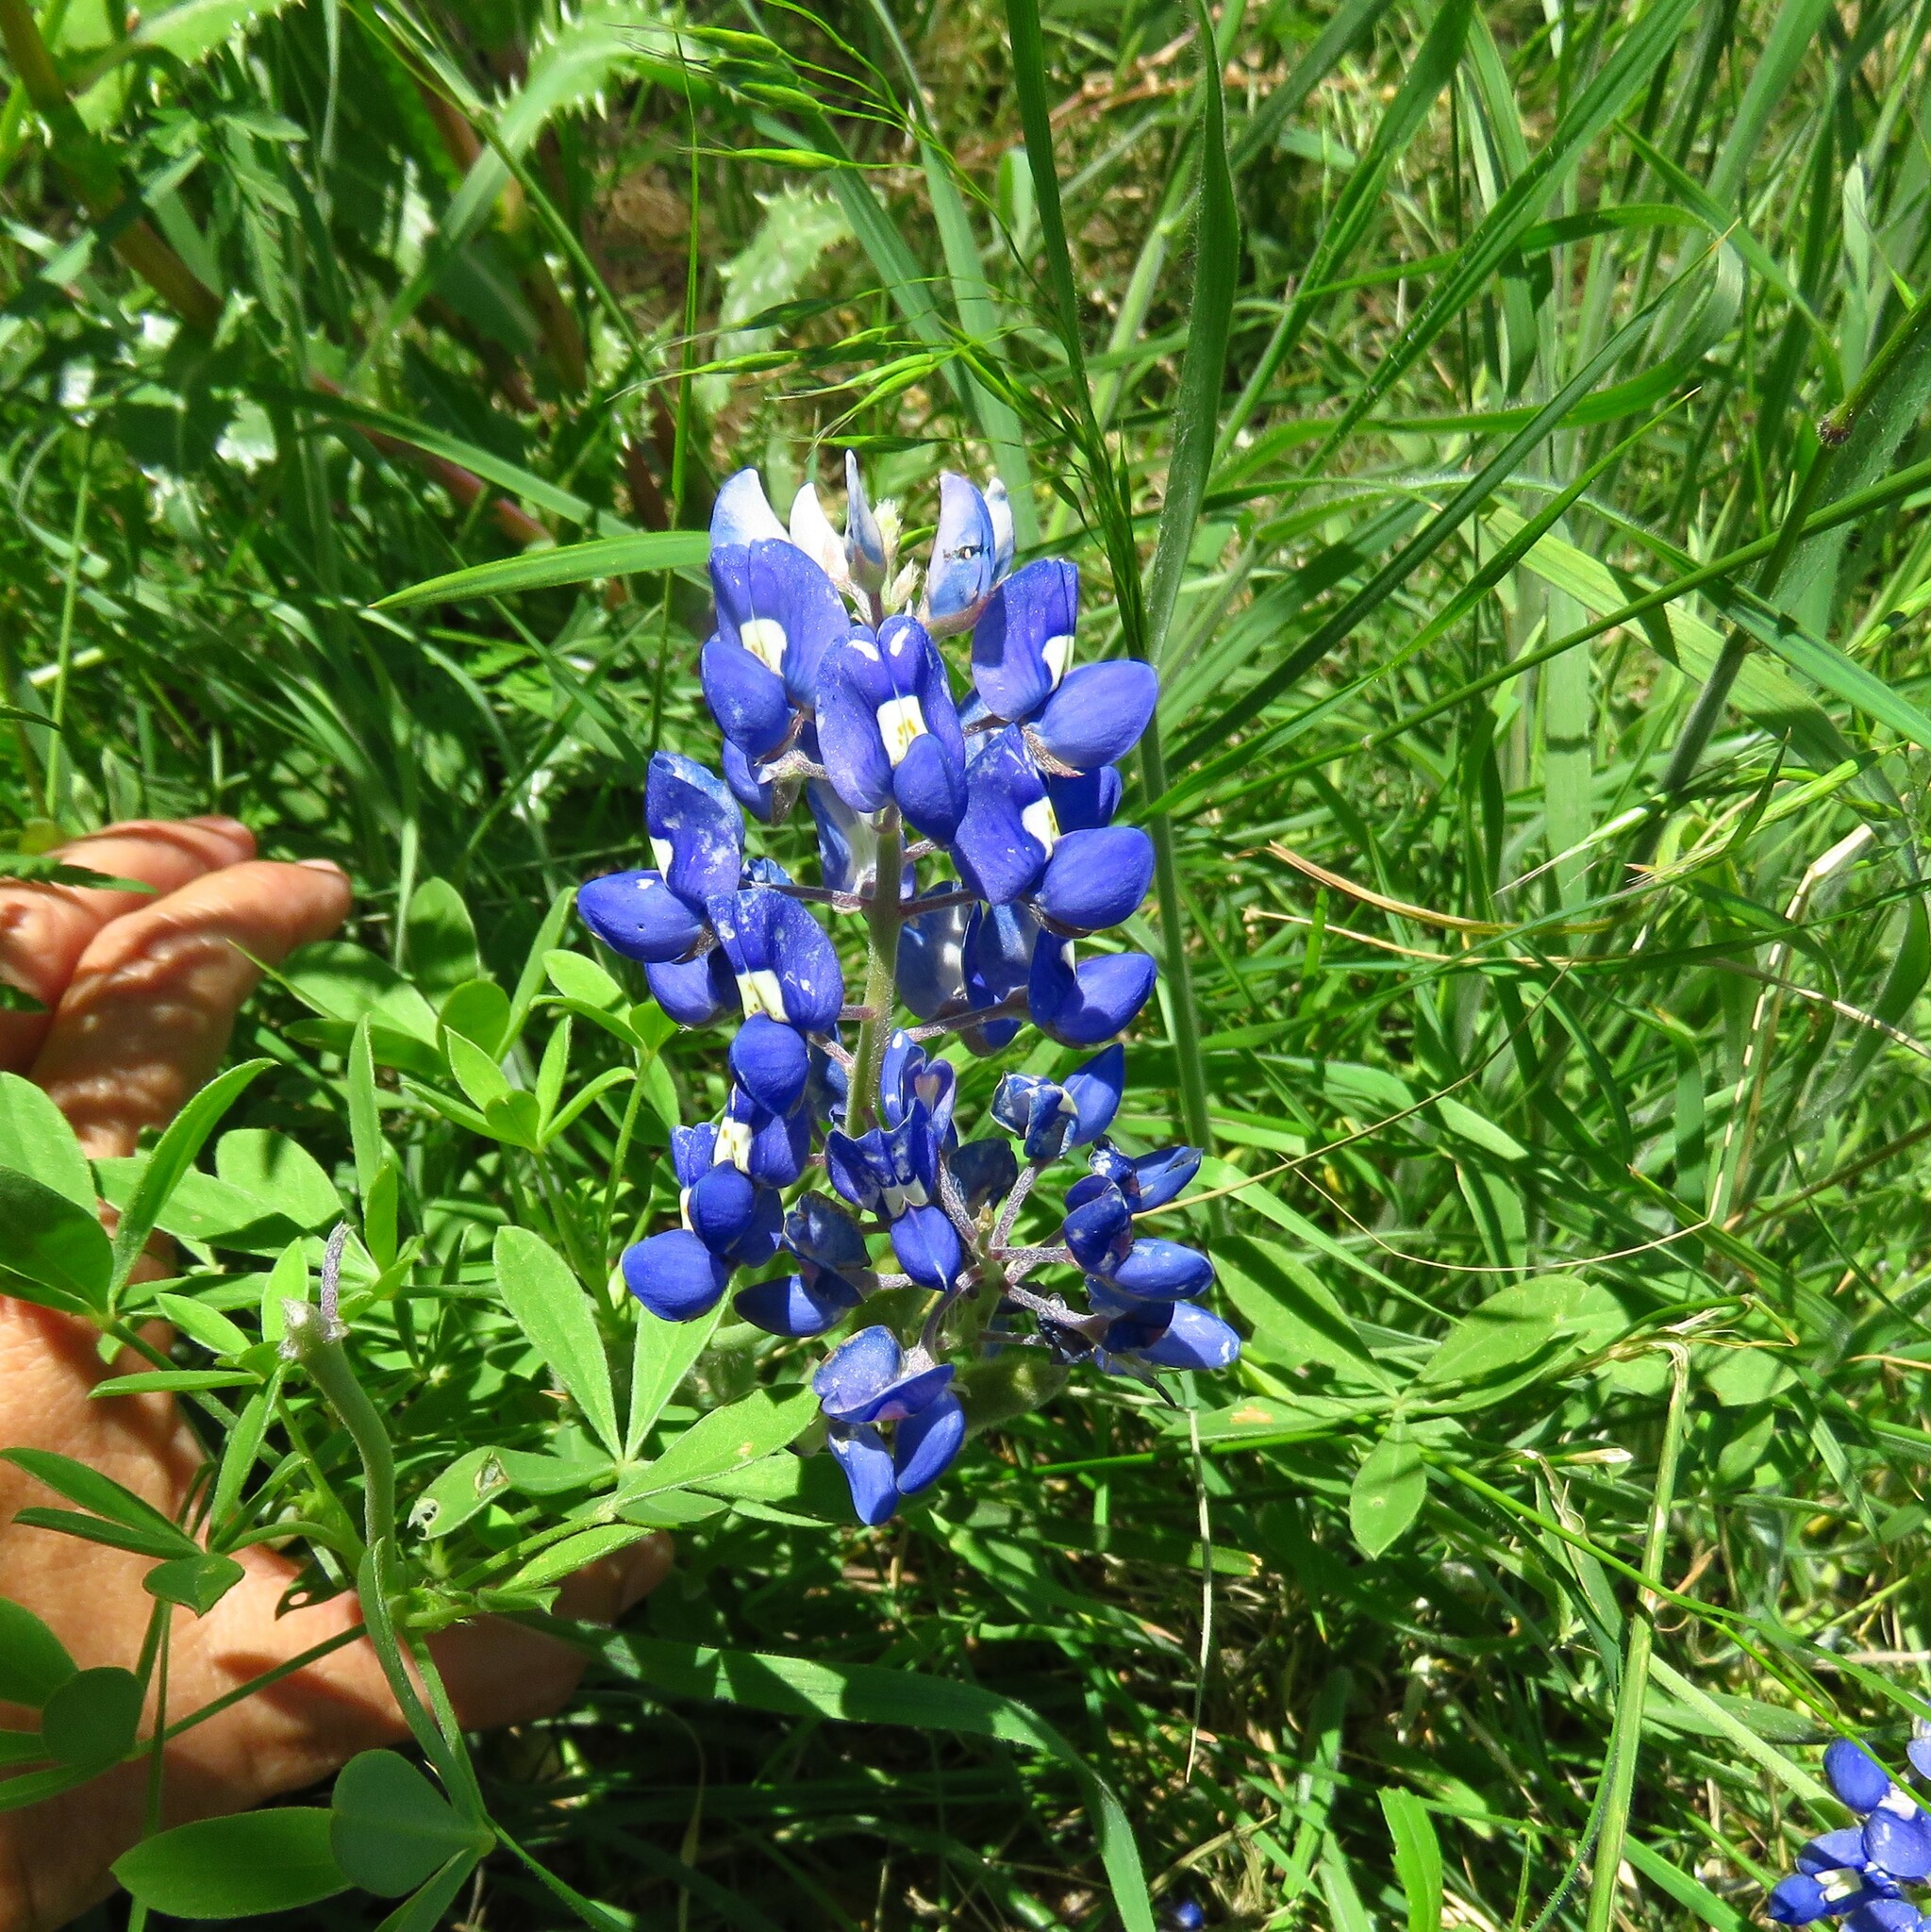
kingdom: Plantae
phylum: Tracheophyta
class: Magnoliopsida
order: Fabales
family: Fabaceae
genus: Lupinus
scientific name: Lupinus texensis
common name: Texas bluebonnet
